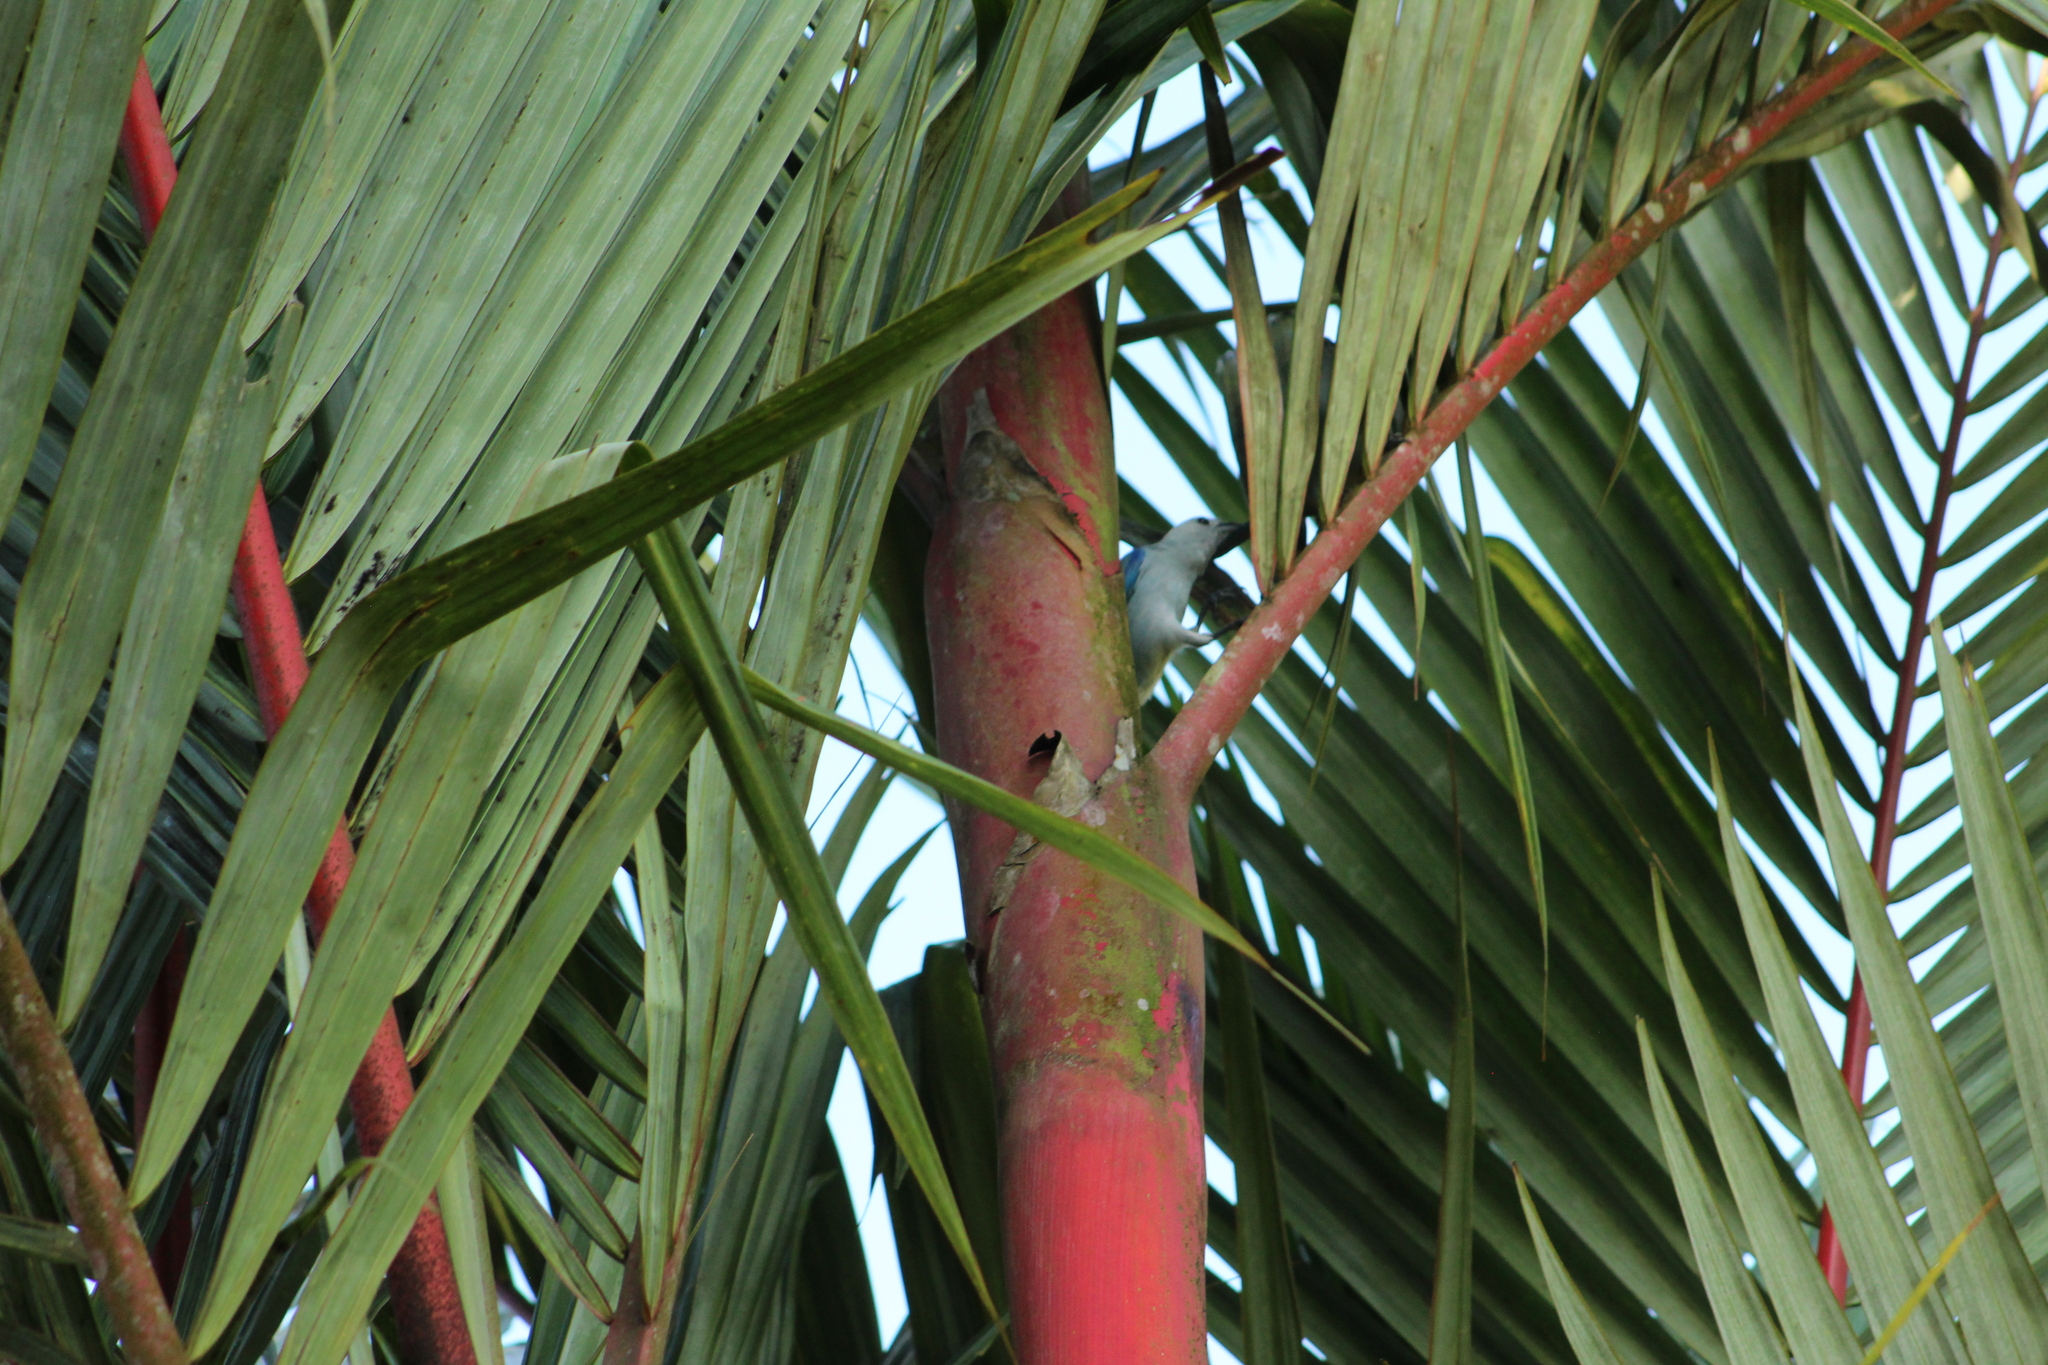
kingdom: Animalia
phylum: Chordata
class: Aves
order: Passeriformes
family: Thraupidae
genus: Thraupis
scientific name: Thraupis episcopus
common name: Blue-grey tanager
